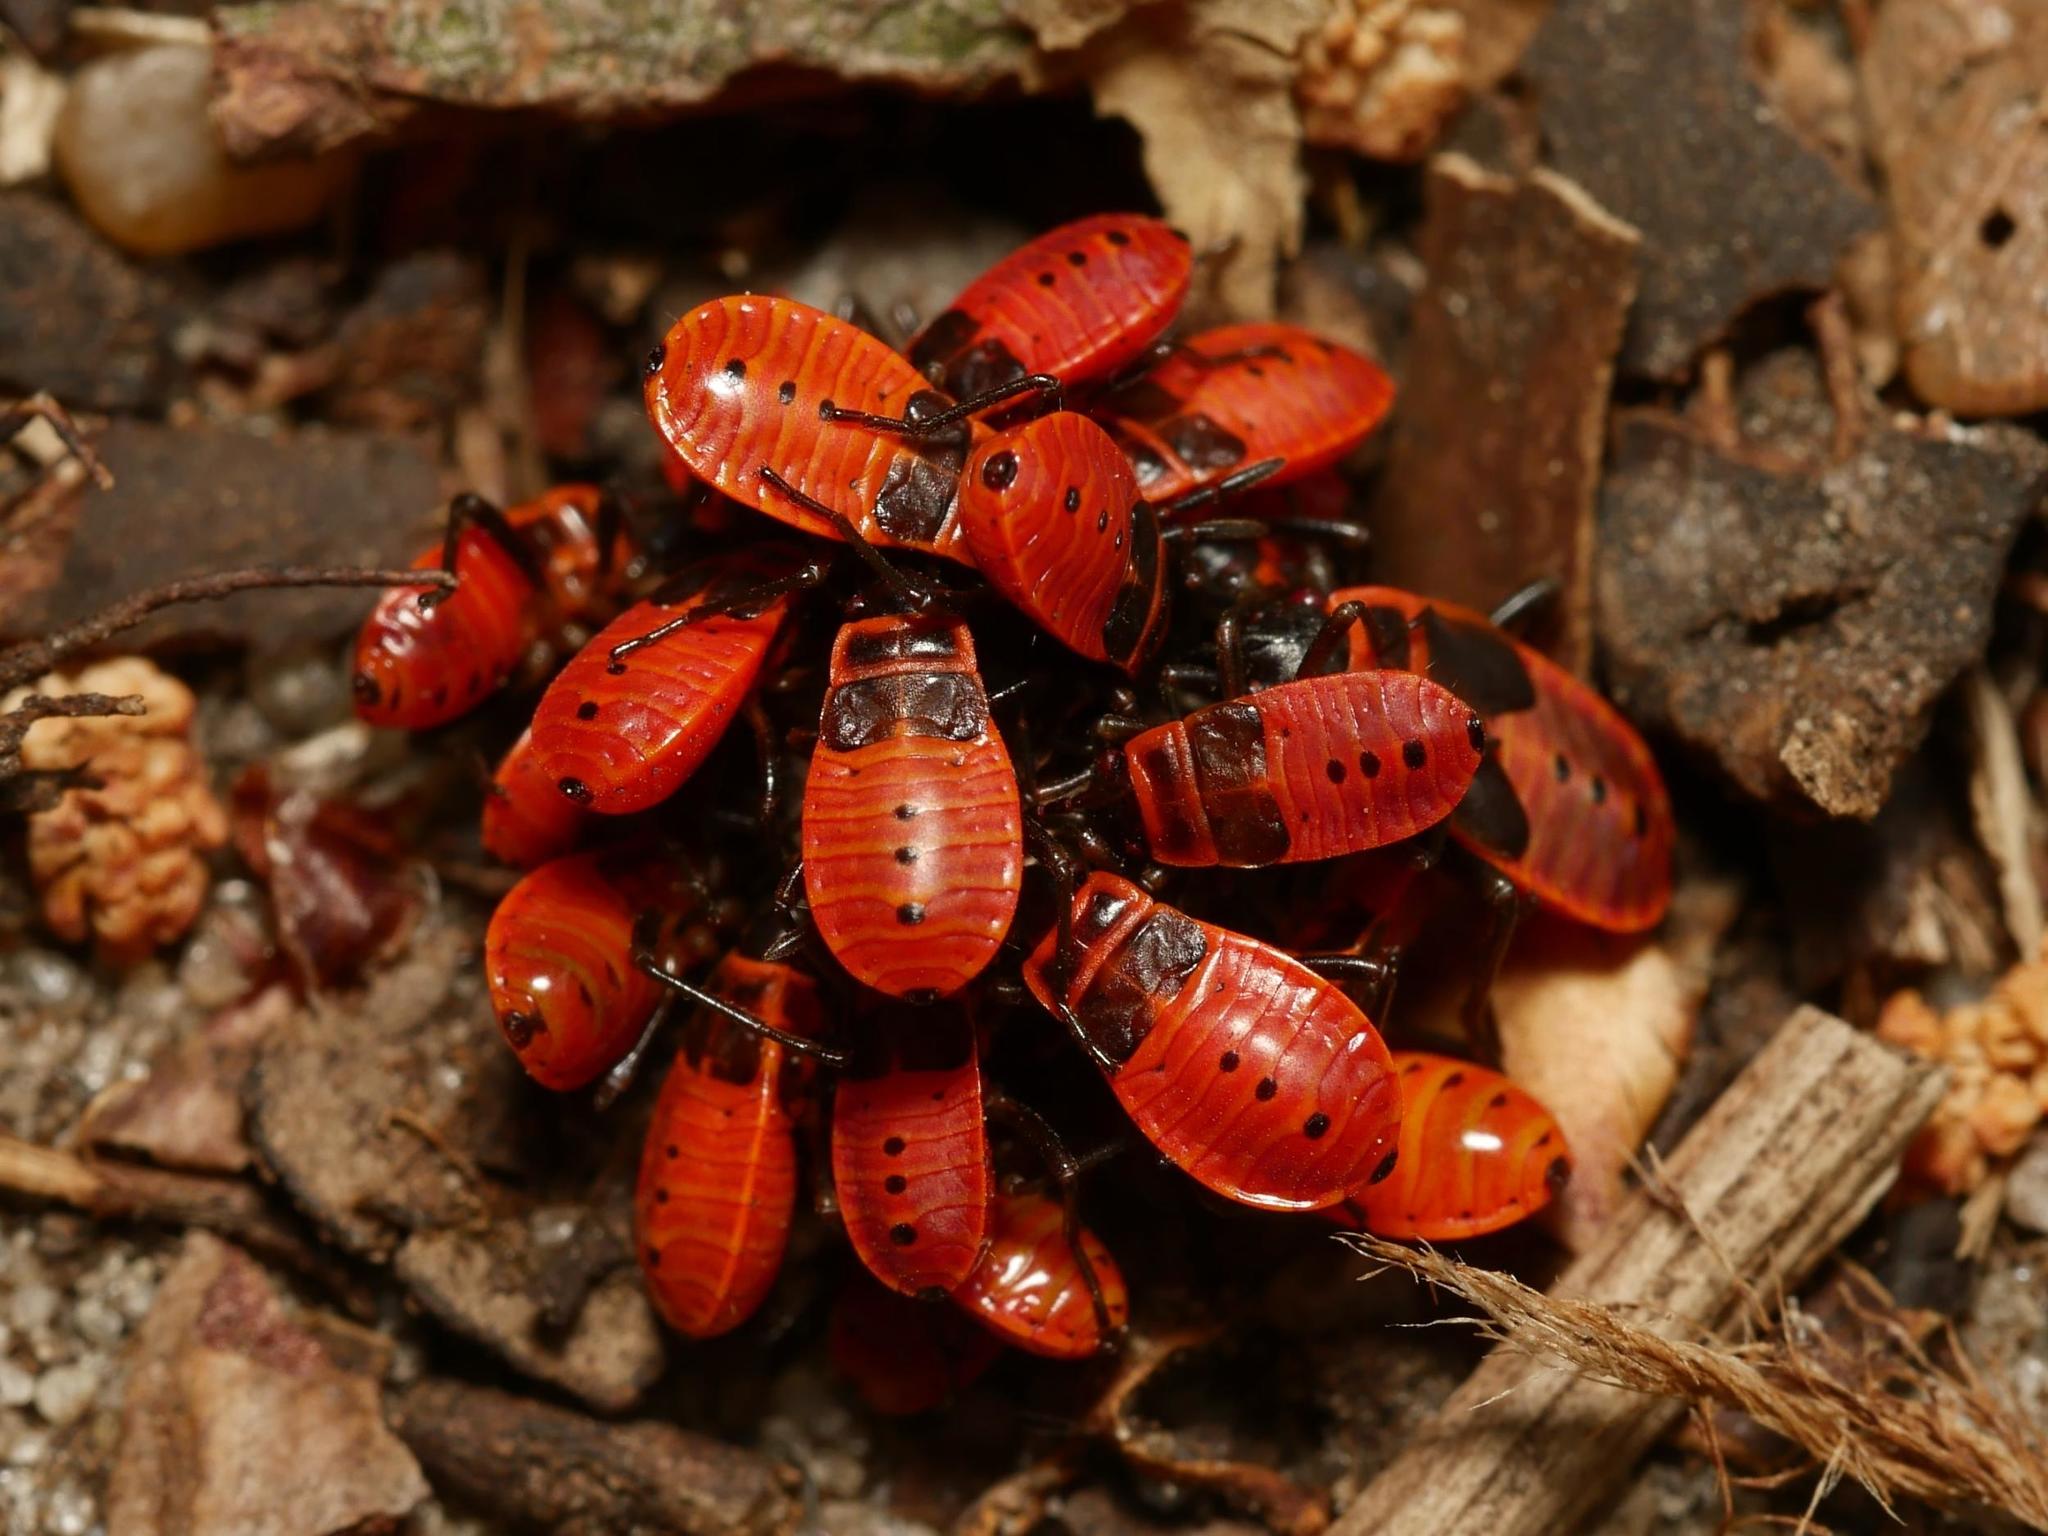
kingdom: Animalia
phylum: Arthropoda
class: Insecta
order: Hemiptera
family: Pyrrhocoridae
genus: Pyrrhocoris
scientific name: Pyrrhocoris apterus
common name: Firebug
